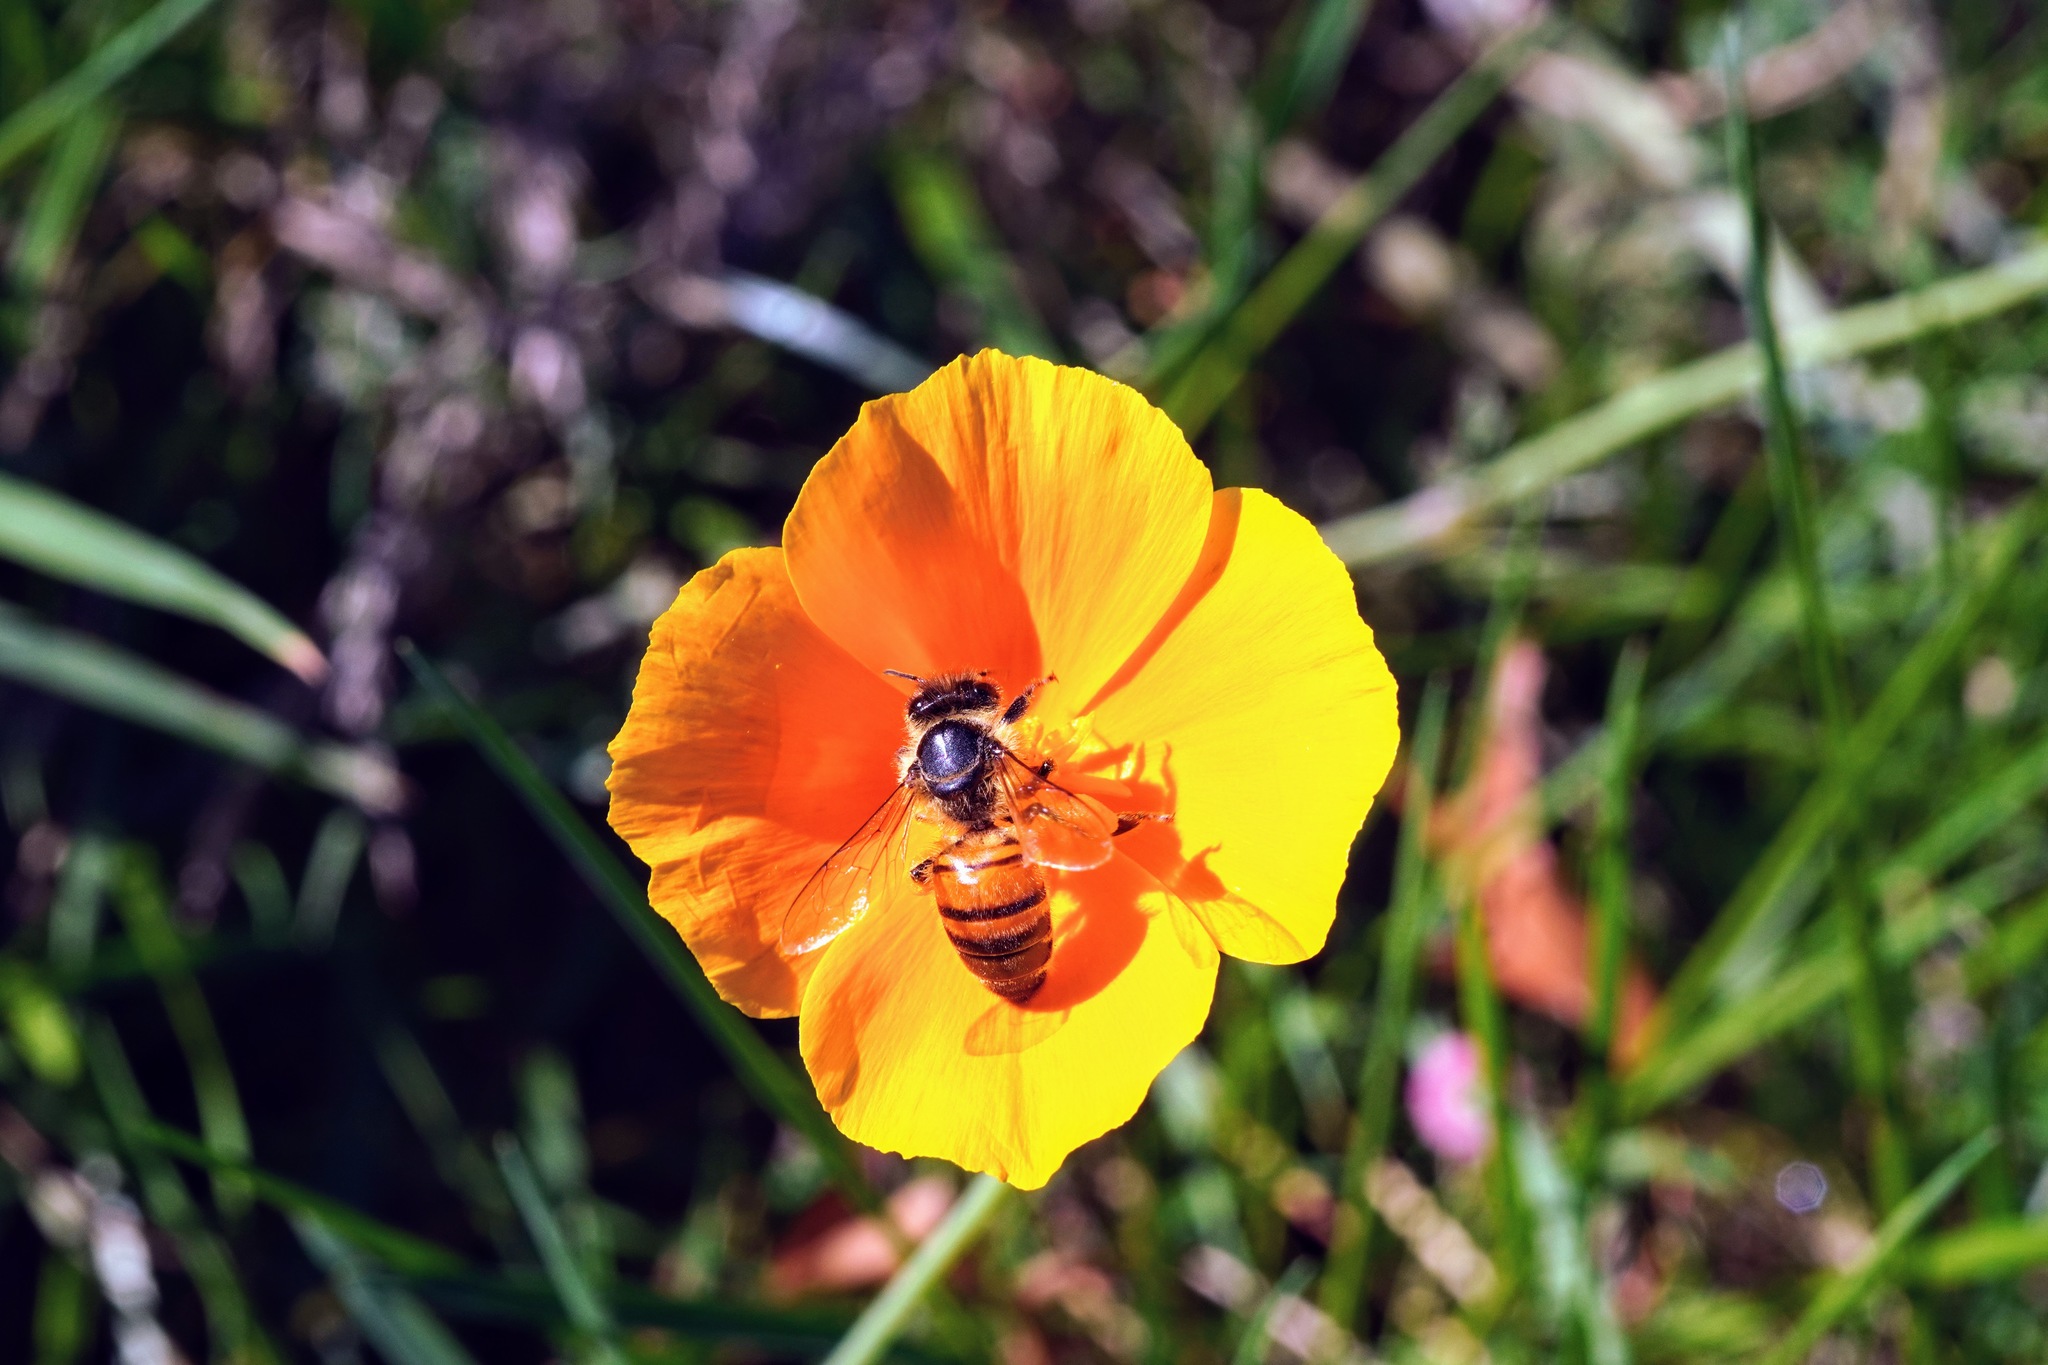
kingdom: Animalia
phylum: Arthropoda
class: Insecta
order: Hymenoptera
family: Apidae
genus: Apis
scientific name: Apis mellifera
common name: Honey bee
